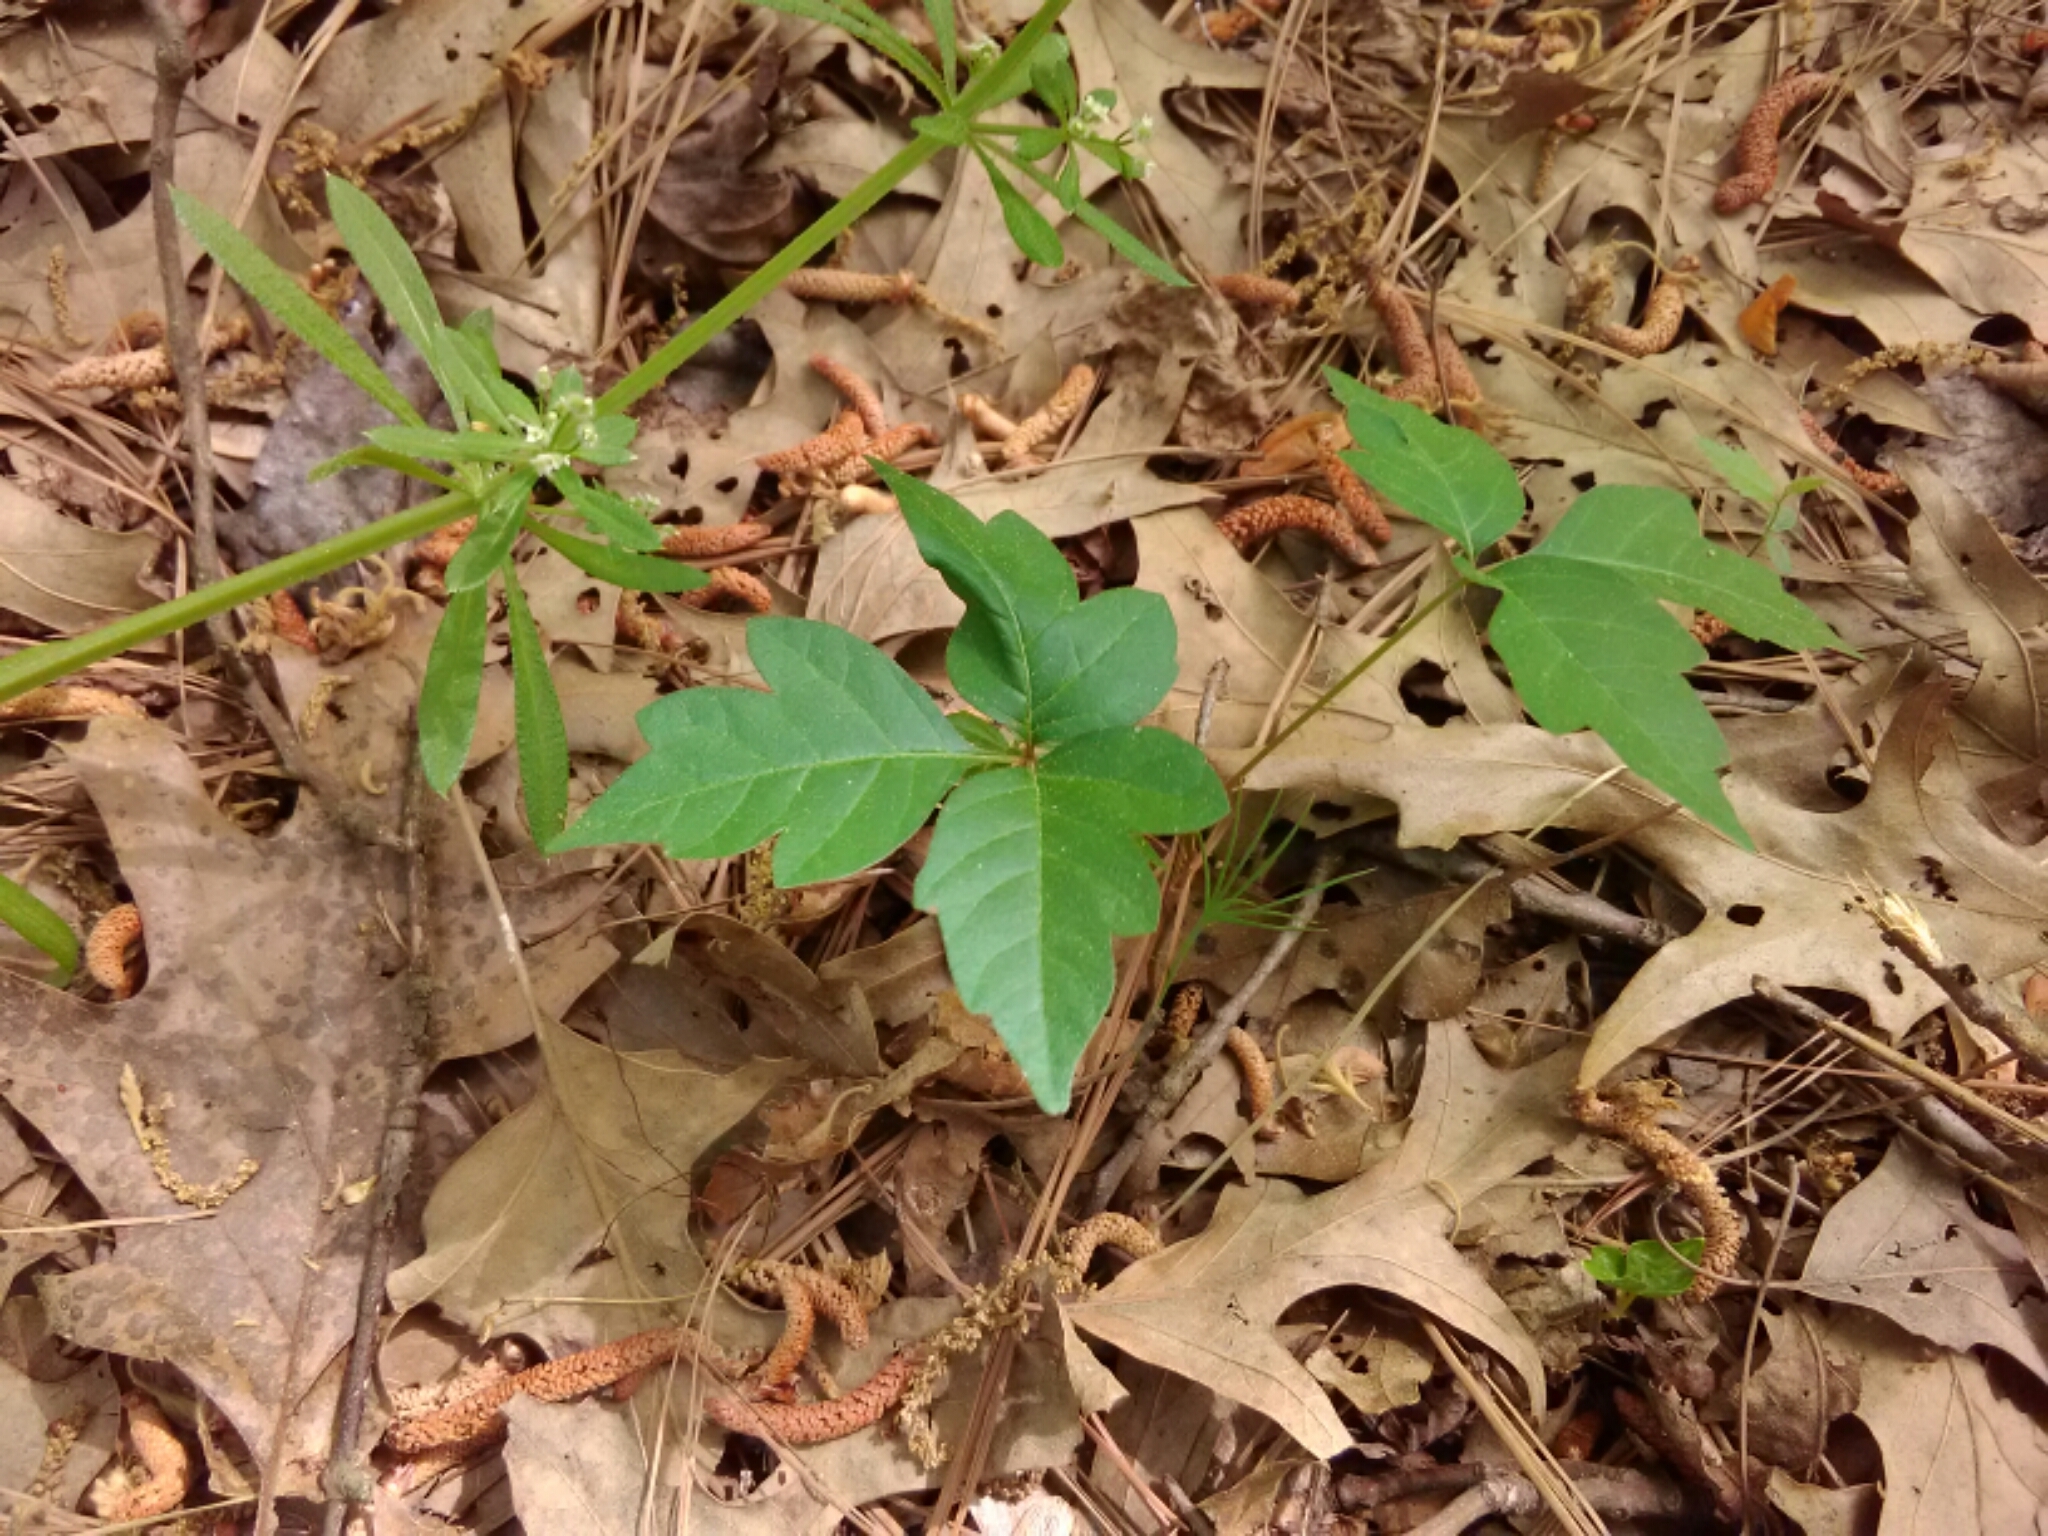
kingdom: Plantae
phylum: Tracheophyta
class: Magnoliopsida
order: Sapindales
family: Anacardiaceae
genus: Toxicodendron
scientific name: Toxicodendron radicans
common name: Poison ivy
